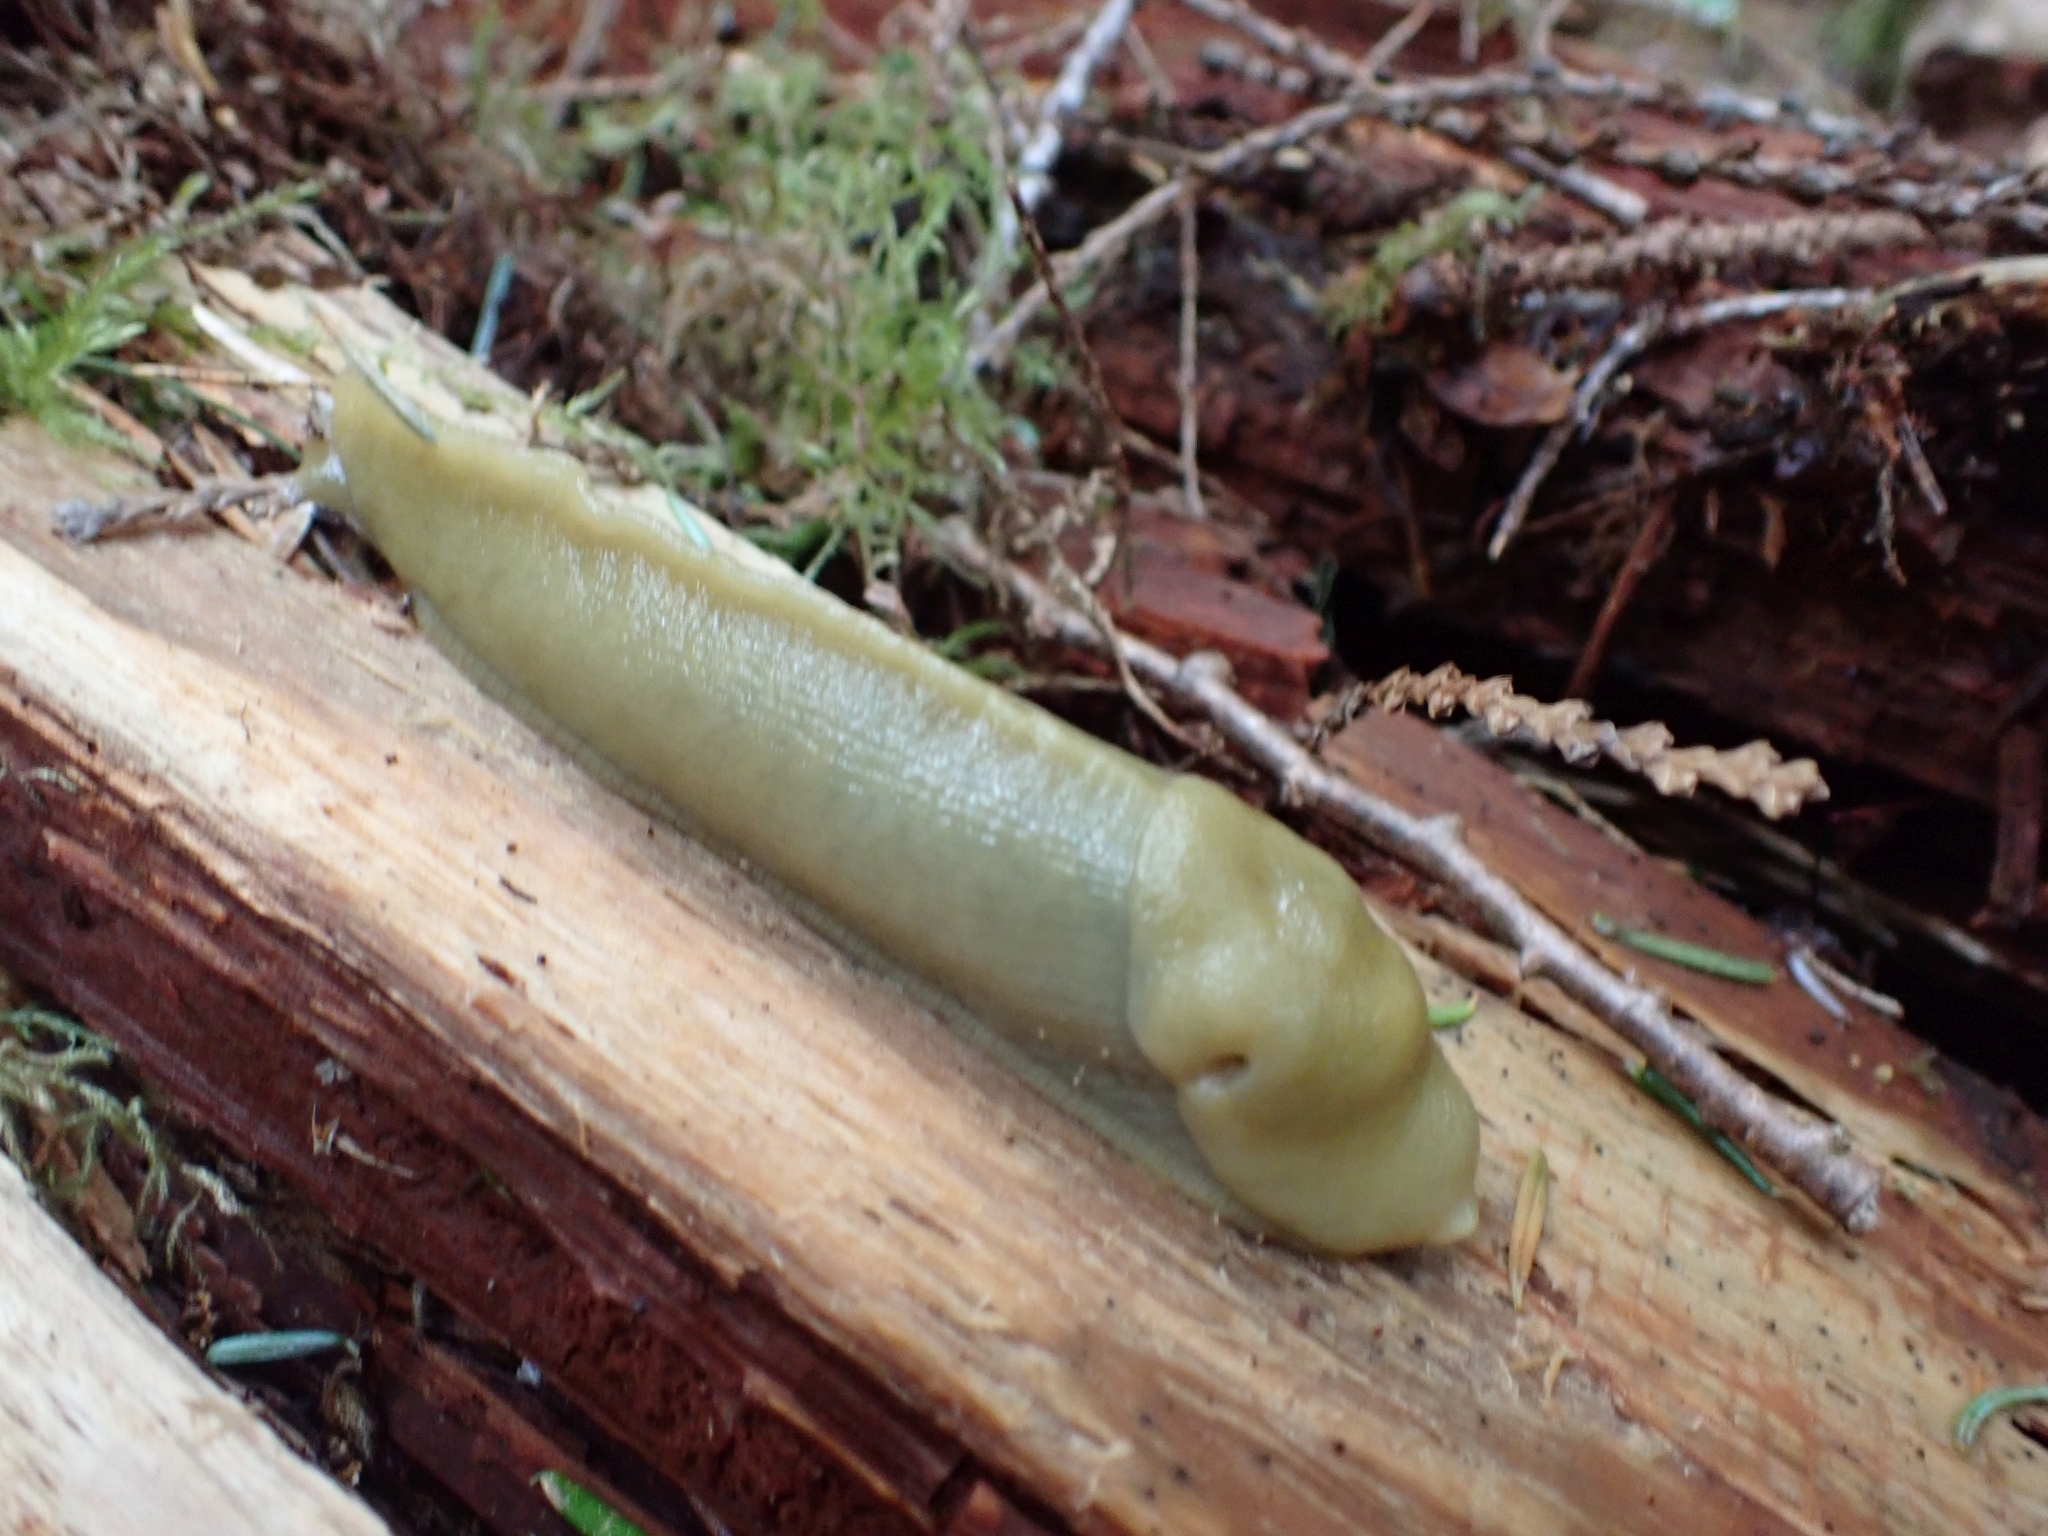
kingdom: Animalia
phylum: Mollusca
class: Gastropoda
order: Stylommatophora
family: Ariolimacidae
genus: Ariolimax
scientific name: Ariolimax columbianus
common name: Pacific banana slug
